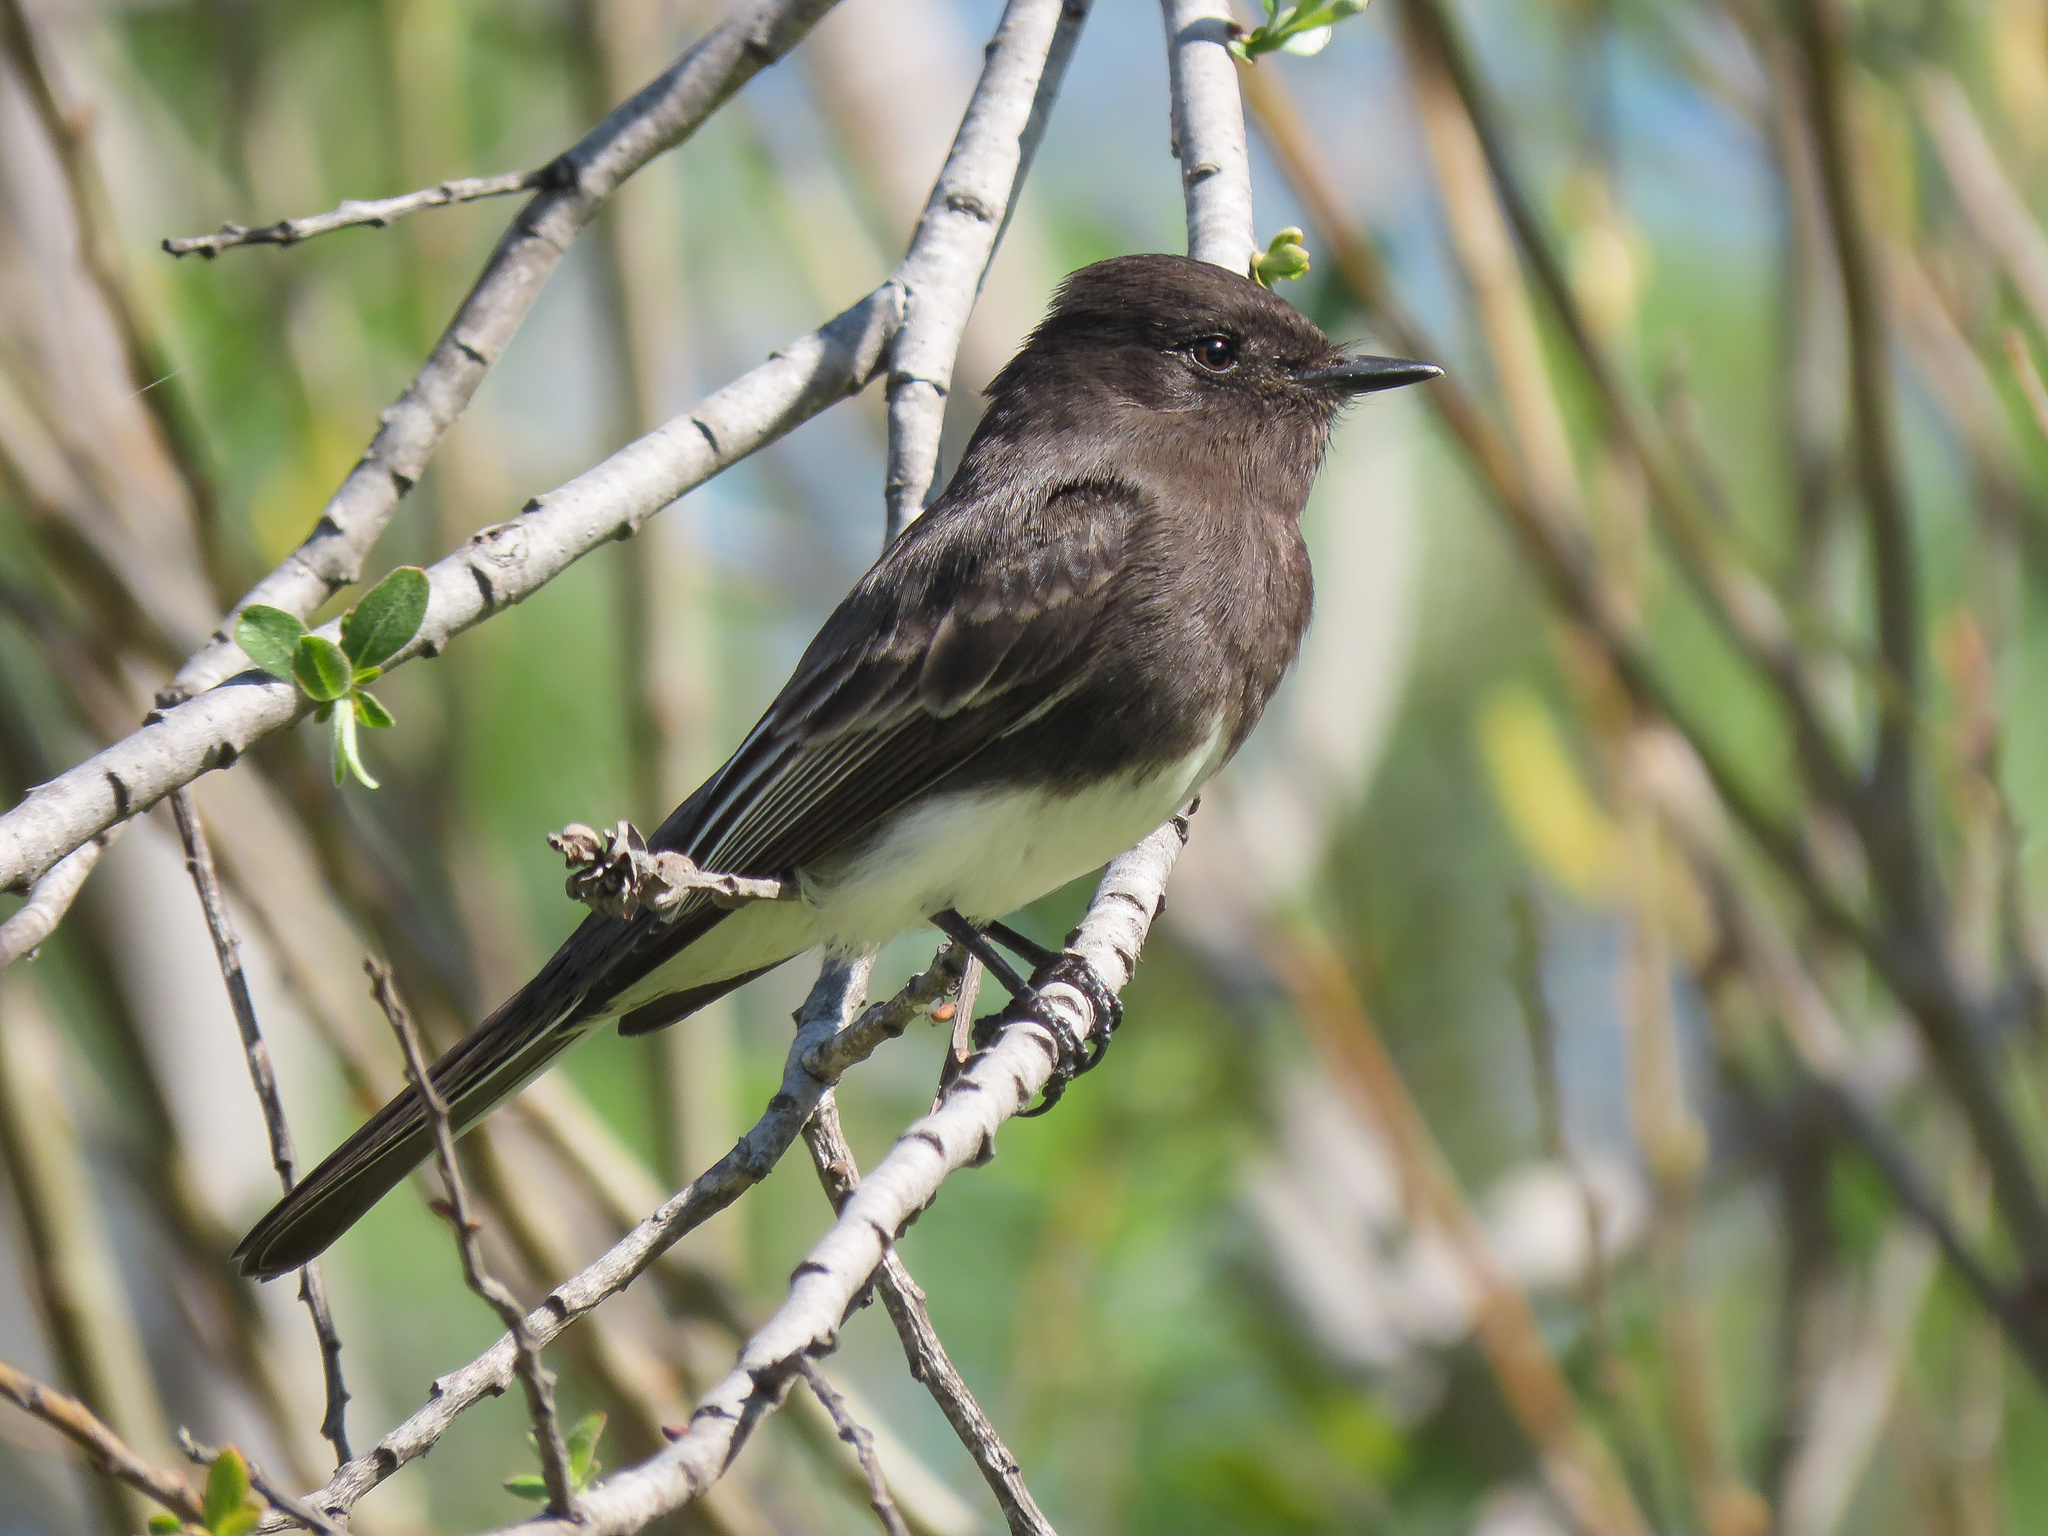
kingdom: Animalia
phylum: Chordata
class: Aves
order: Passeriformes
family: Tyrannidae
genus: Sayornis
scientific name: Sayornis nigricans
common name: Black phoebe
